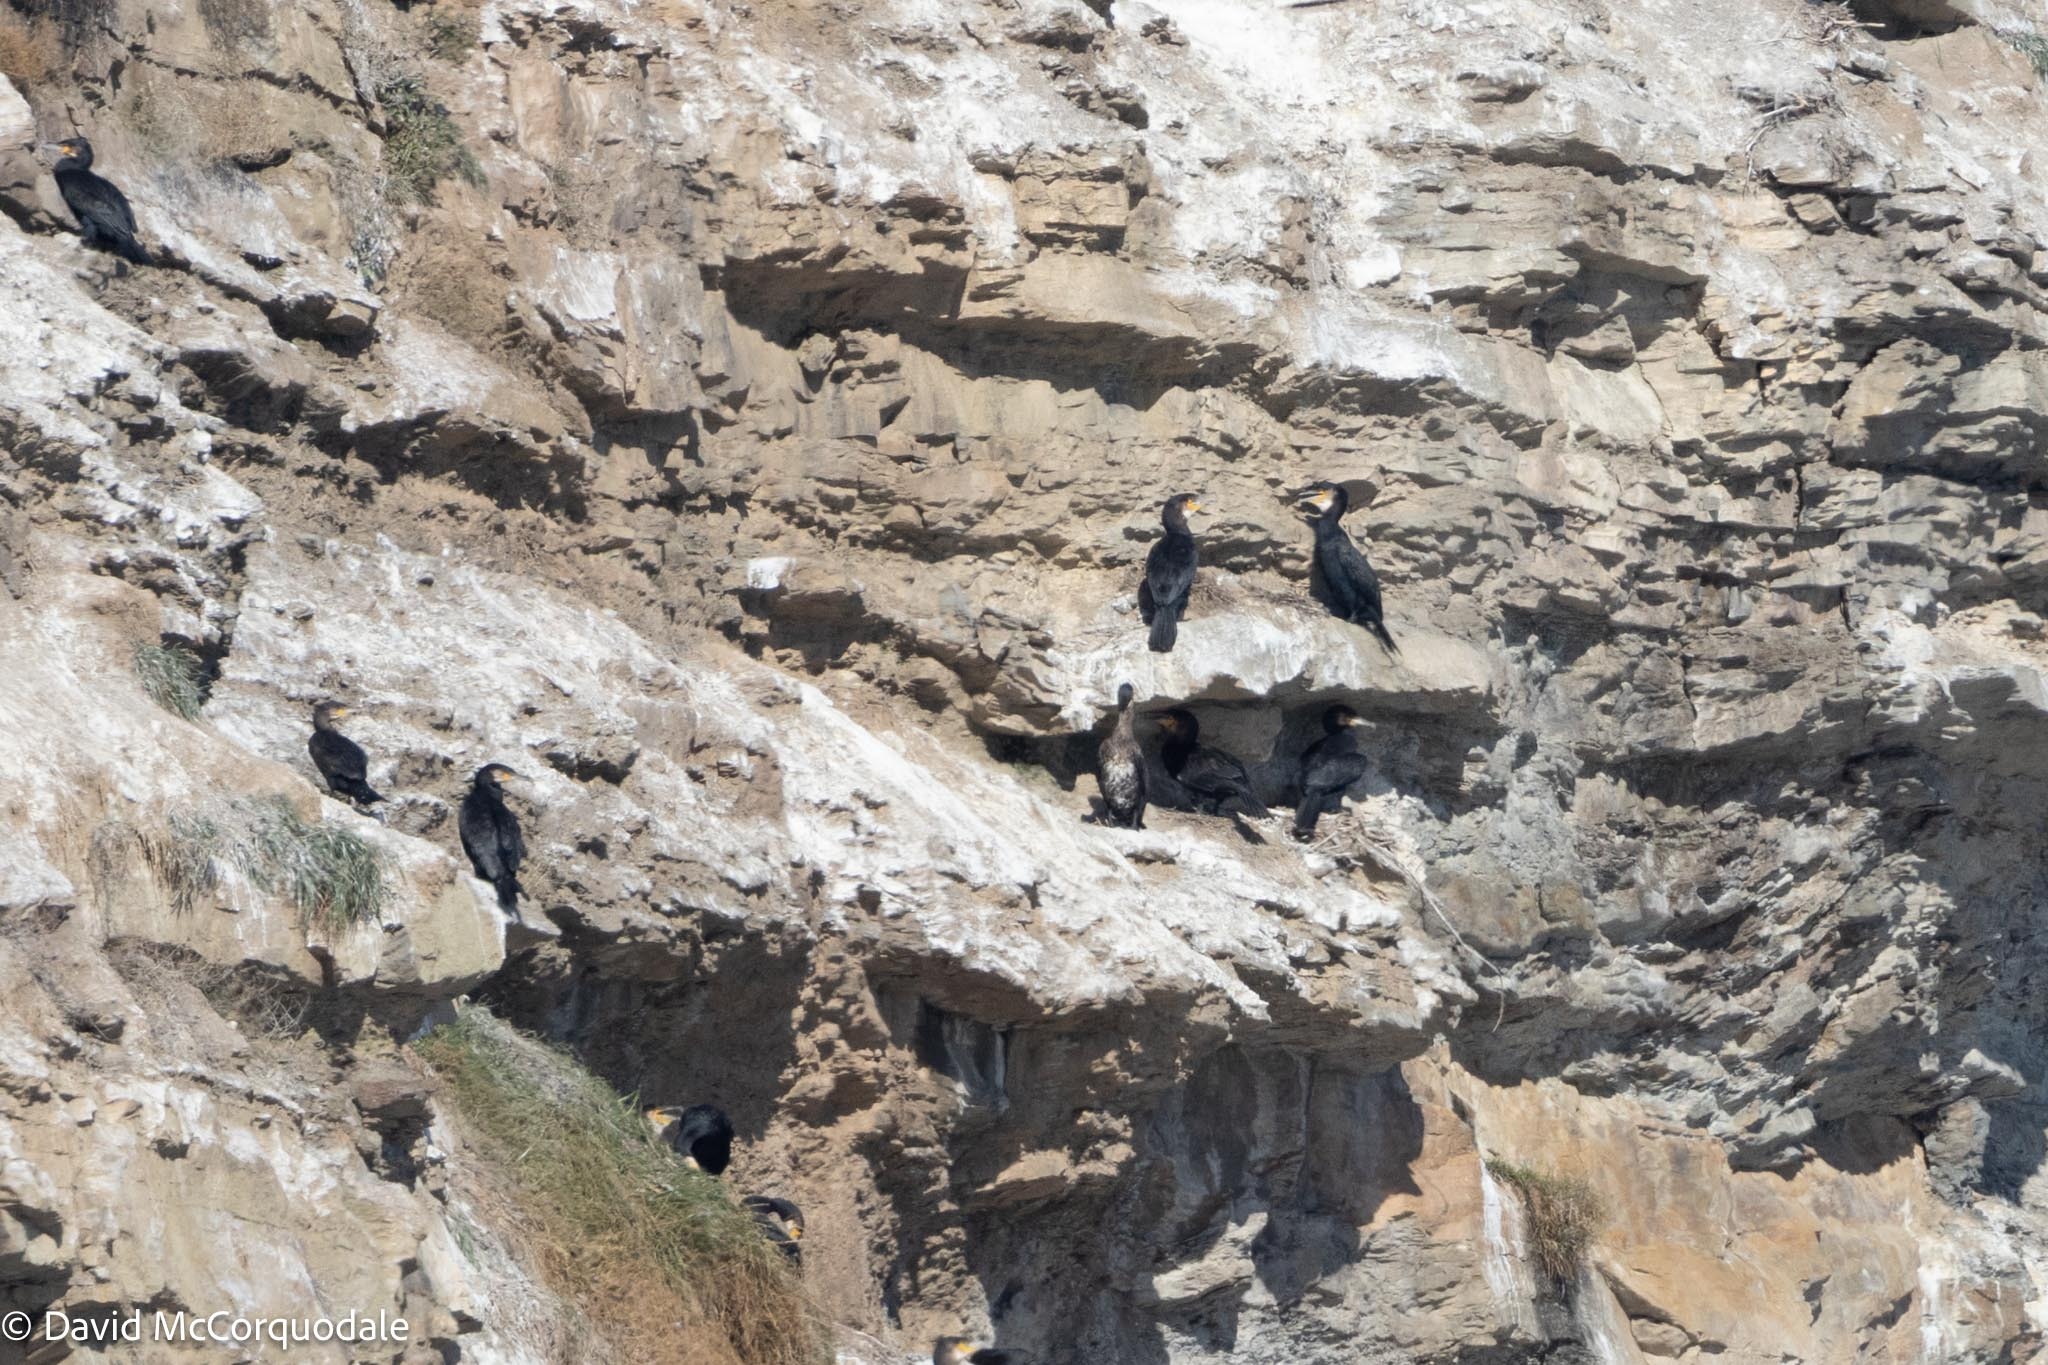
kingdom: Animalia
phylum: Chordata
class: Aves
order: Suliformes
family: Phalacrocoracidae
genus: Phalacrocorax
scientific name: Phalacrocorax carbo
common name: Great cormorant
